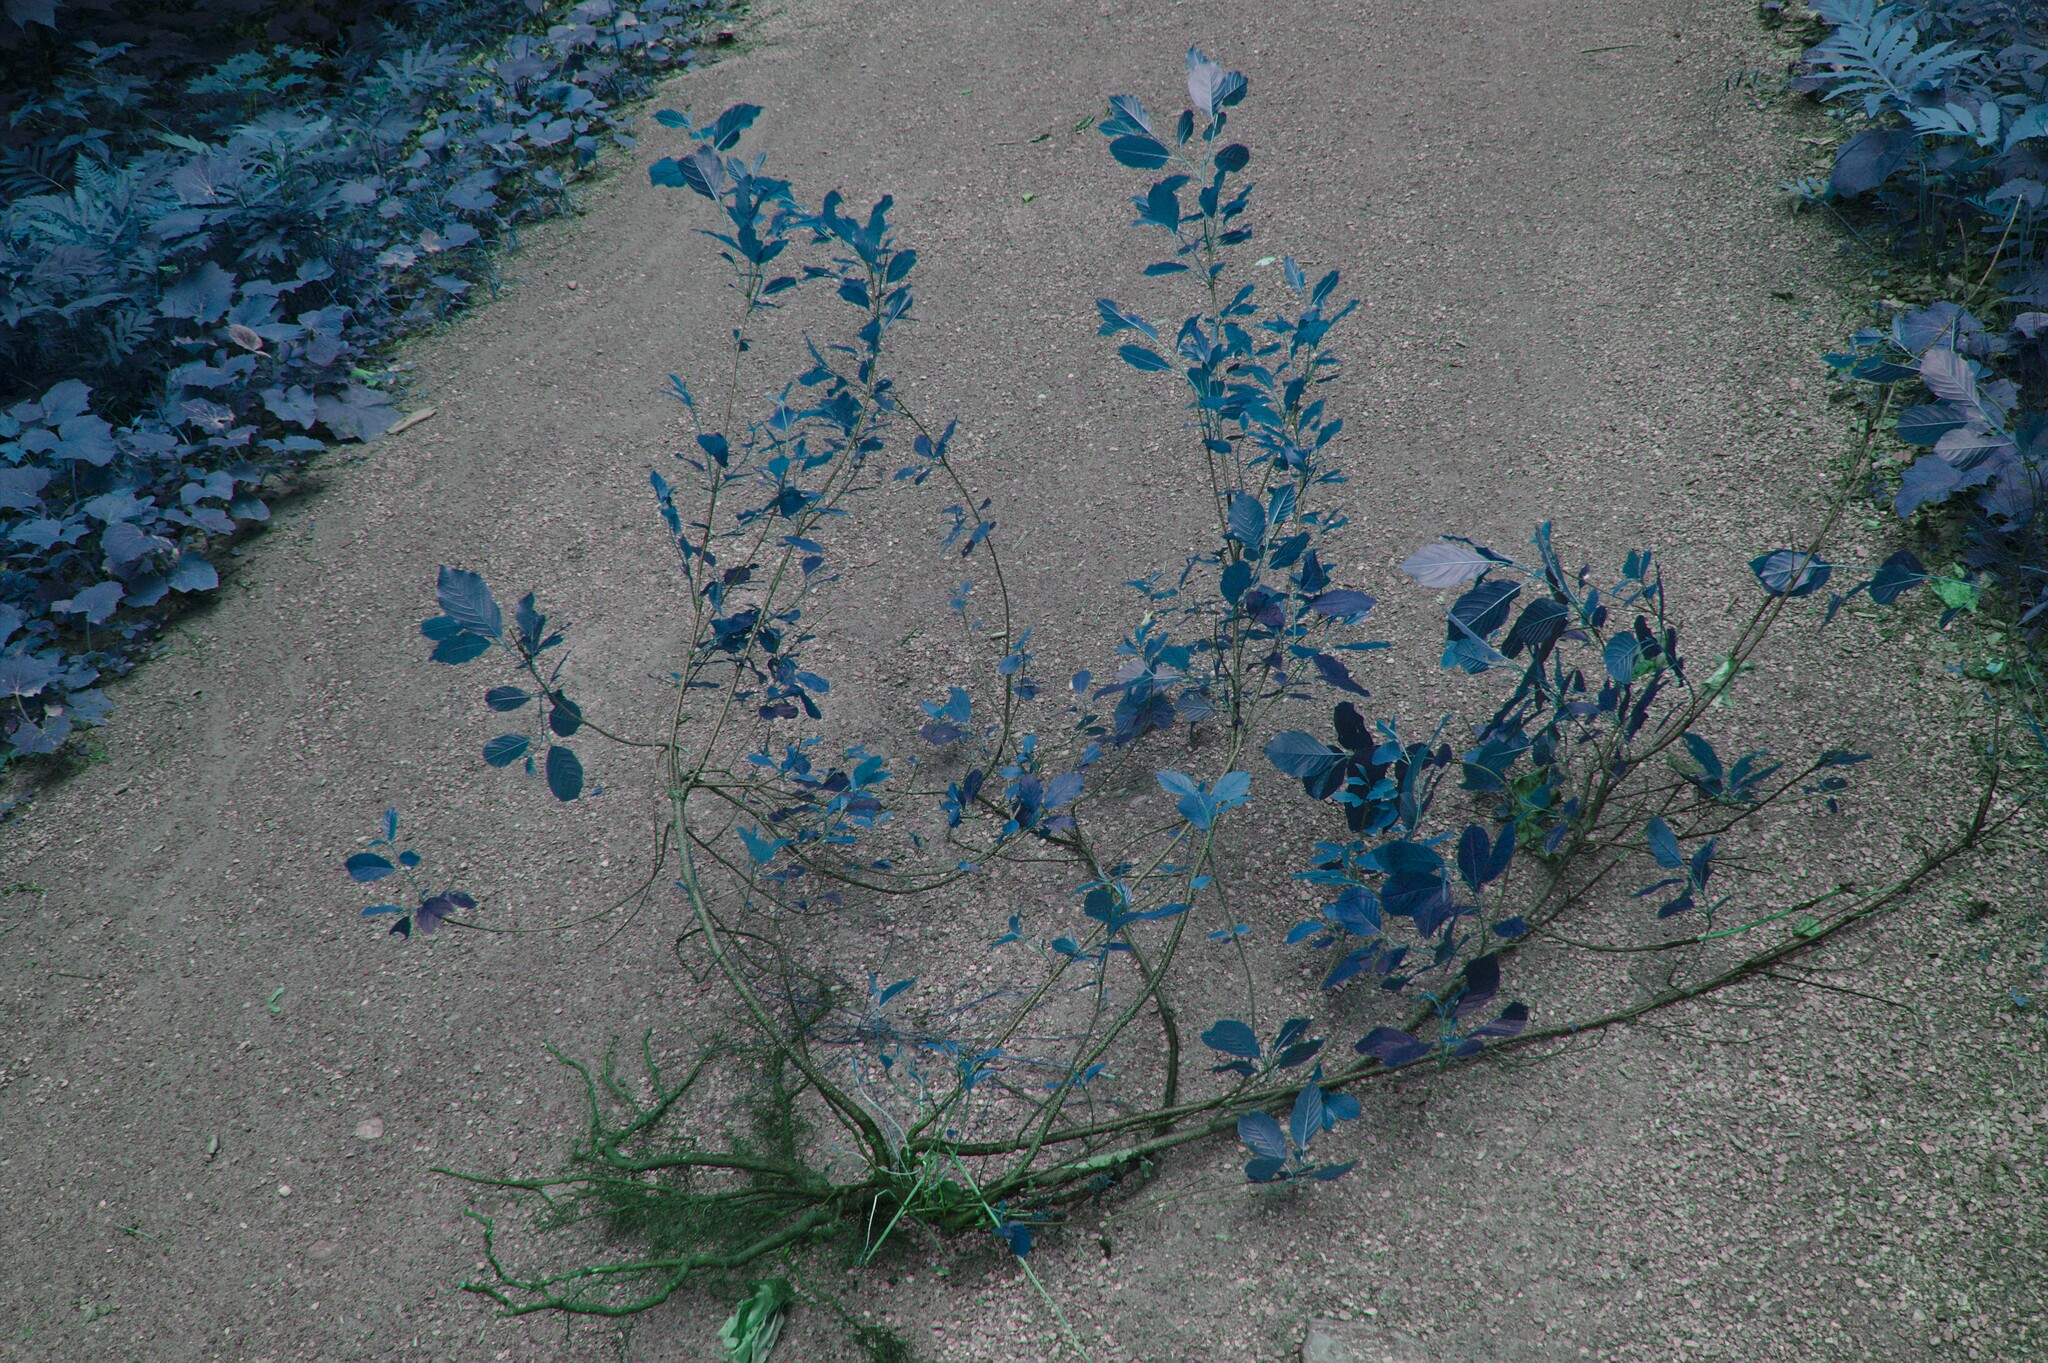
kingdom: Plantae
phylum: Tracheophyta
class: Magnoliopsida
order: Rosales
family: Rhamnaceae
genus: Frangula
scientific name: Frangula alnus
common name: Alder buckthorn
